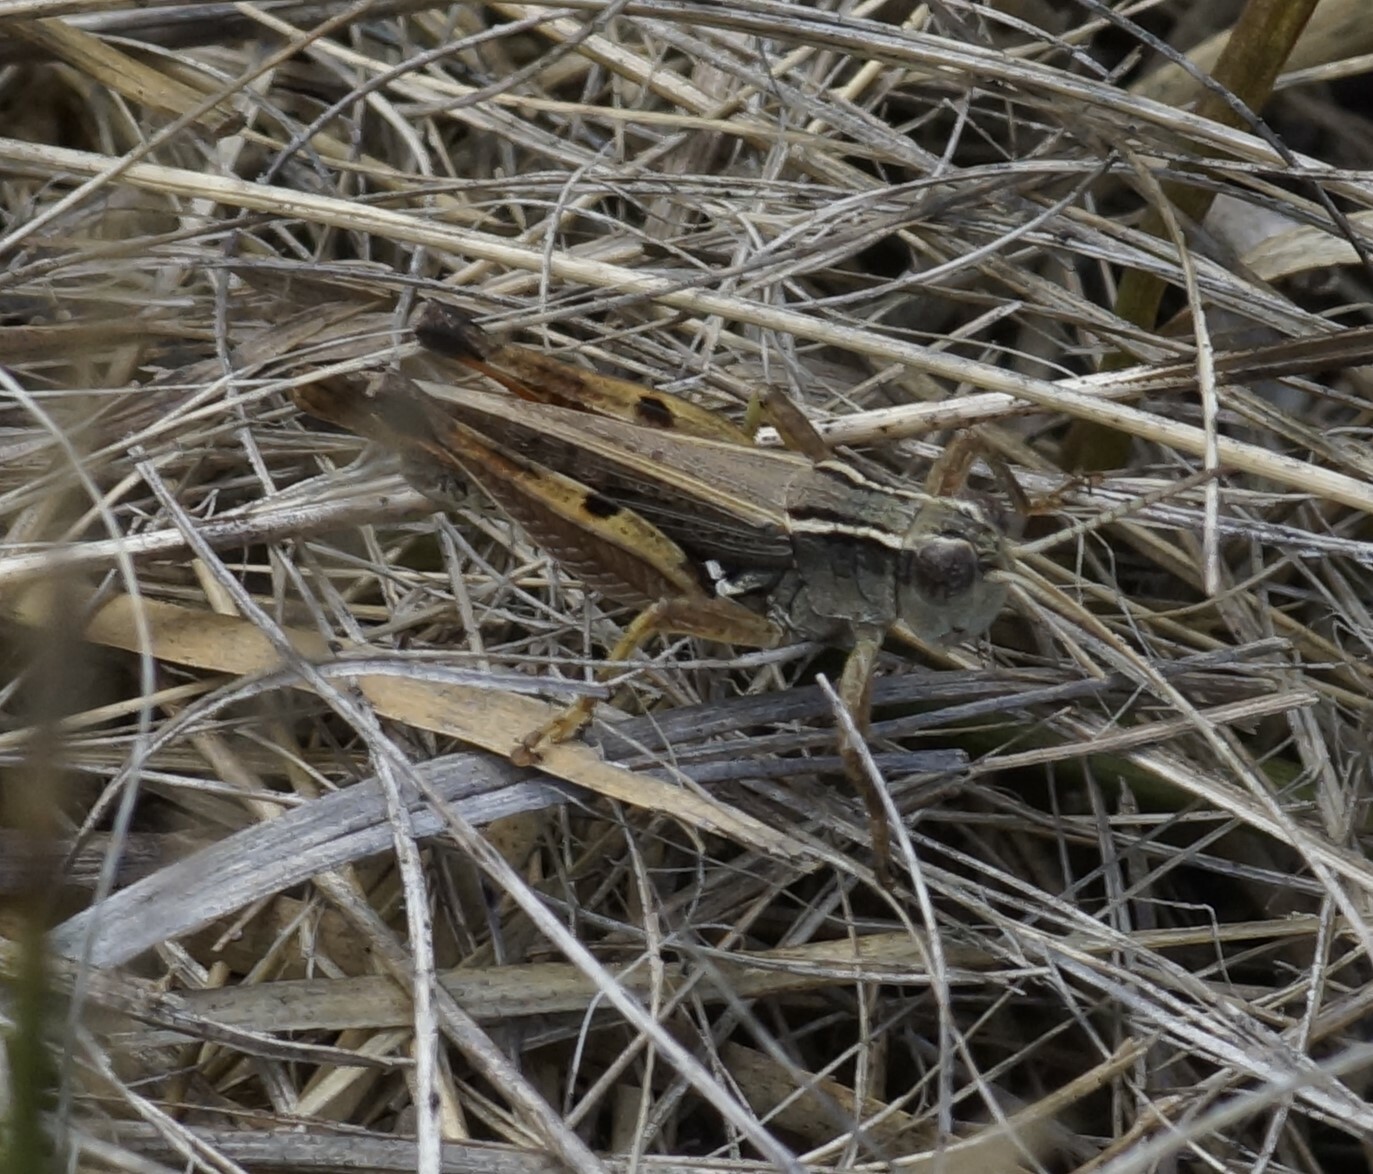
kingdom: Animalia
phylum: Arthropoda
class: Insecta
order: Orthoptera
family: Acrididae
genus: Phaulacridium
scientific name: Phaulacridium vittatum
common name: Wingless grasshopper
